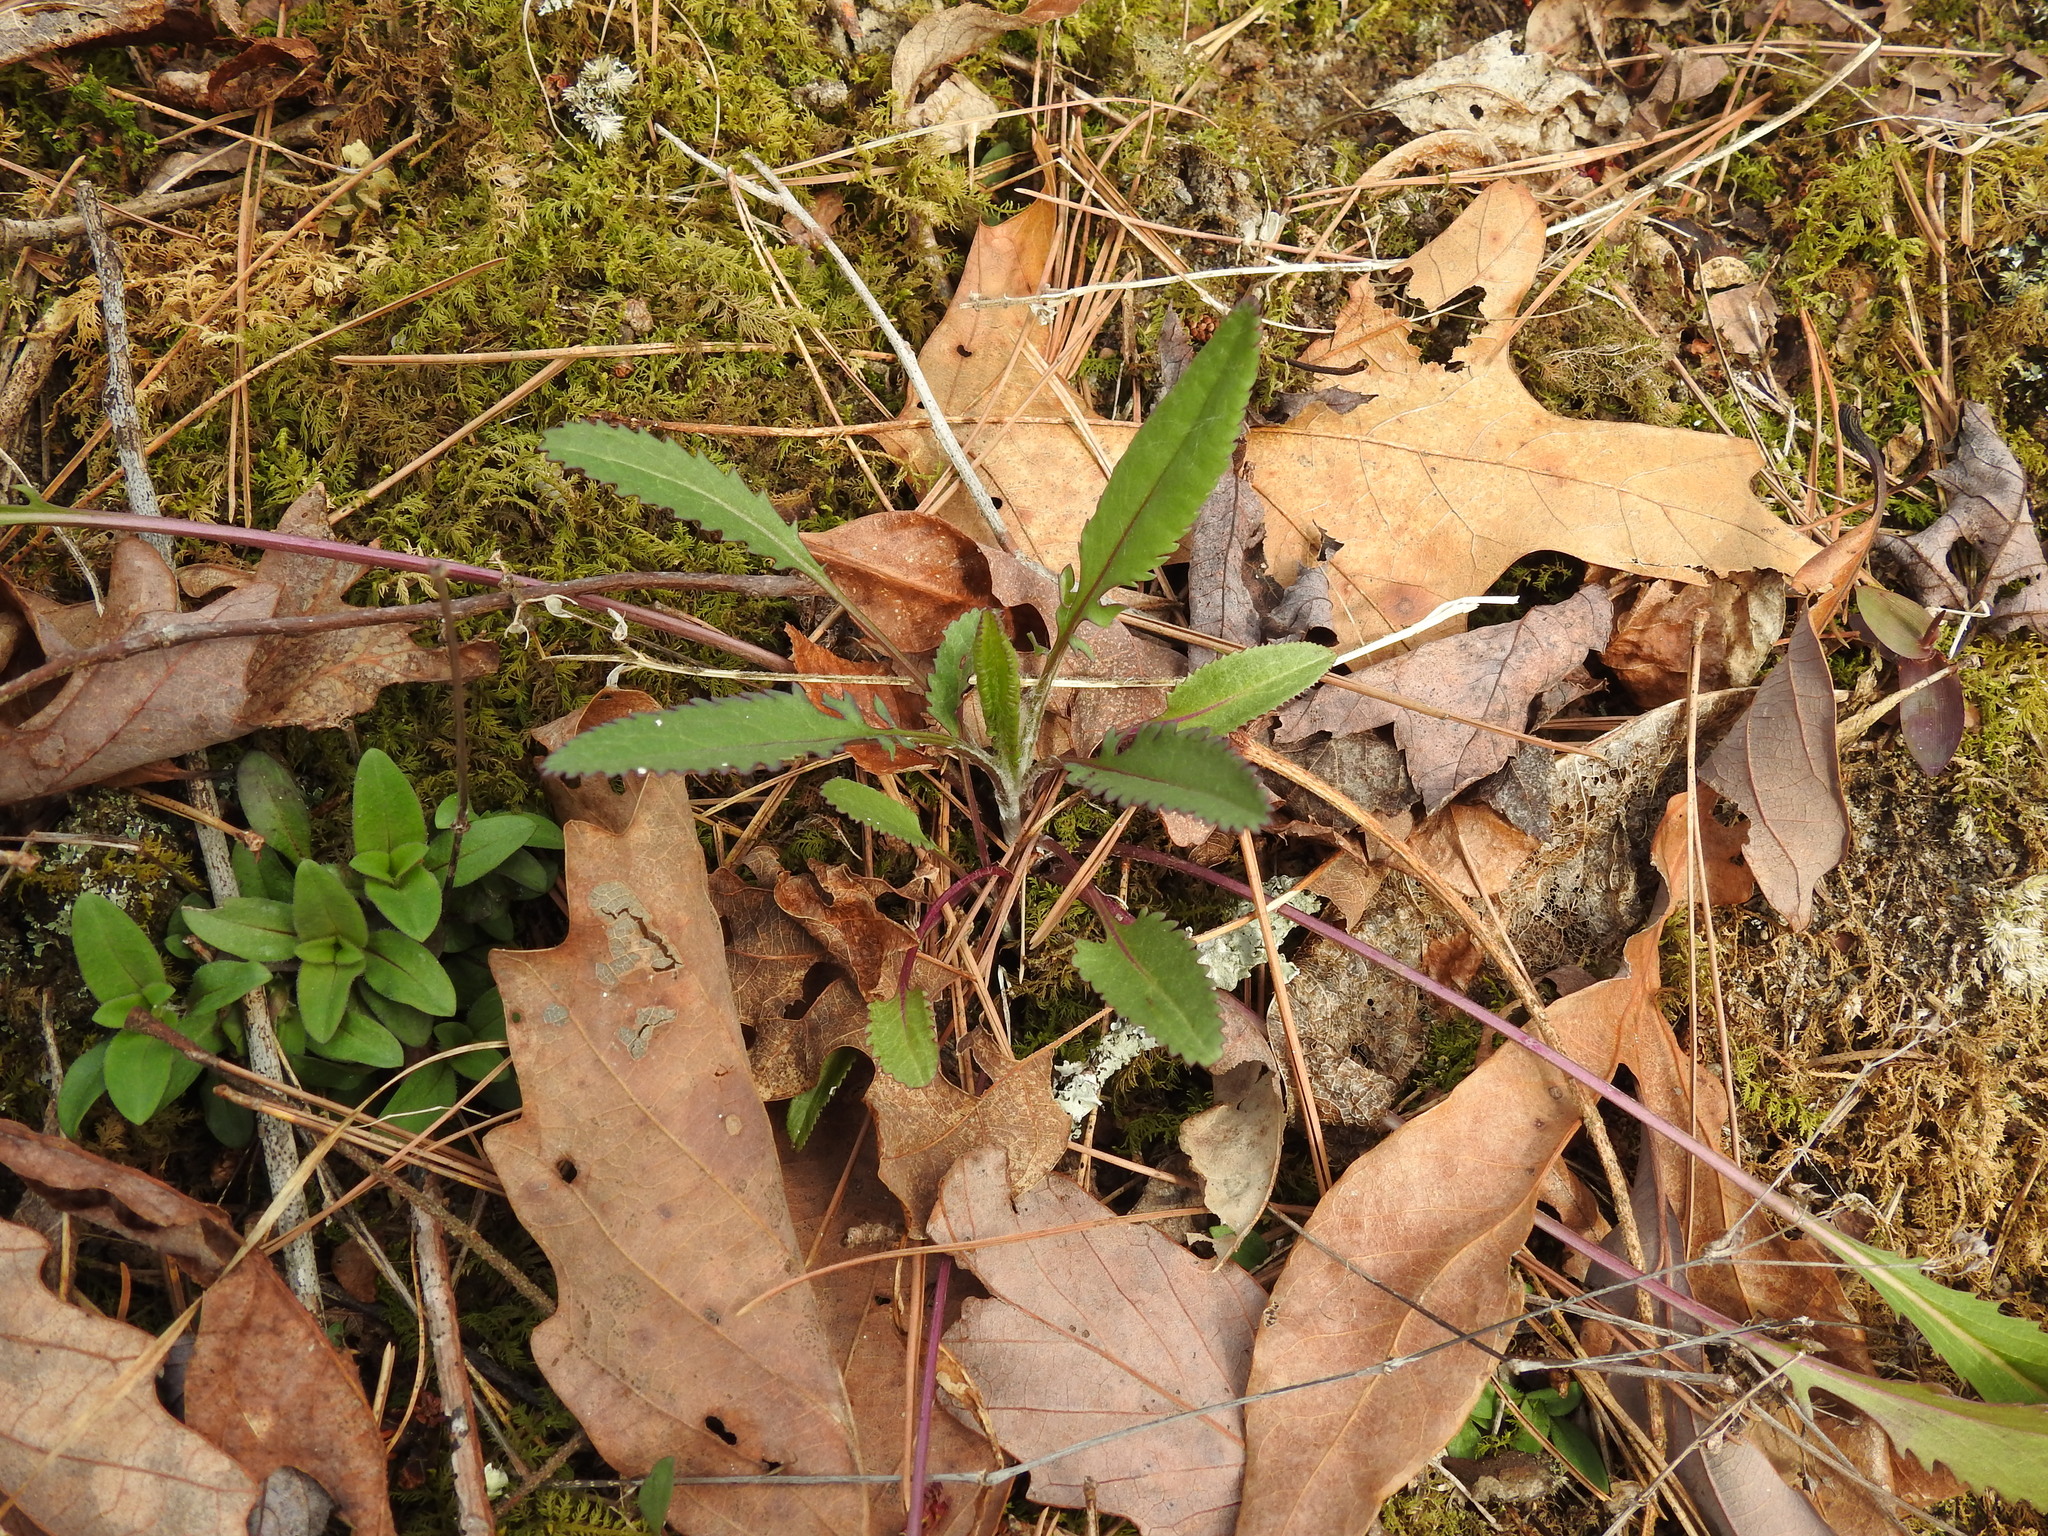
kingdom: Plantae
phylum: Tracheophyta
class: Magnoliopsida
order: Asterales
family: Asteraceae
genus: Packera
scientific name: Packera anonyma
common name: Small ragwort
